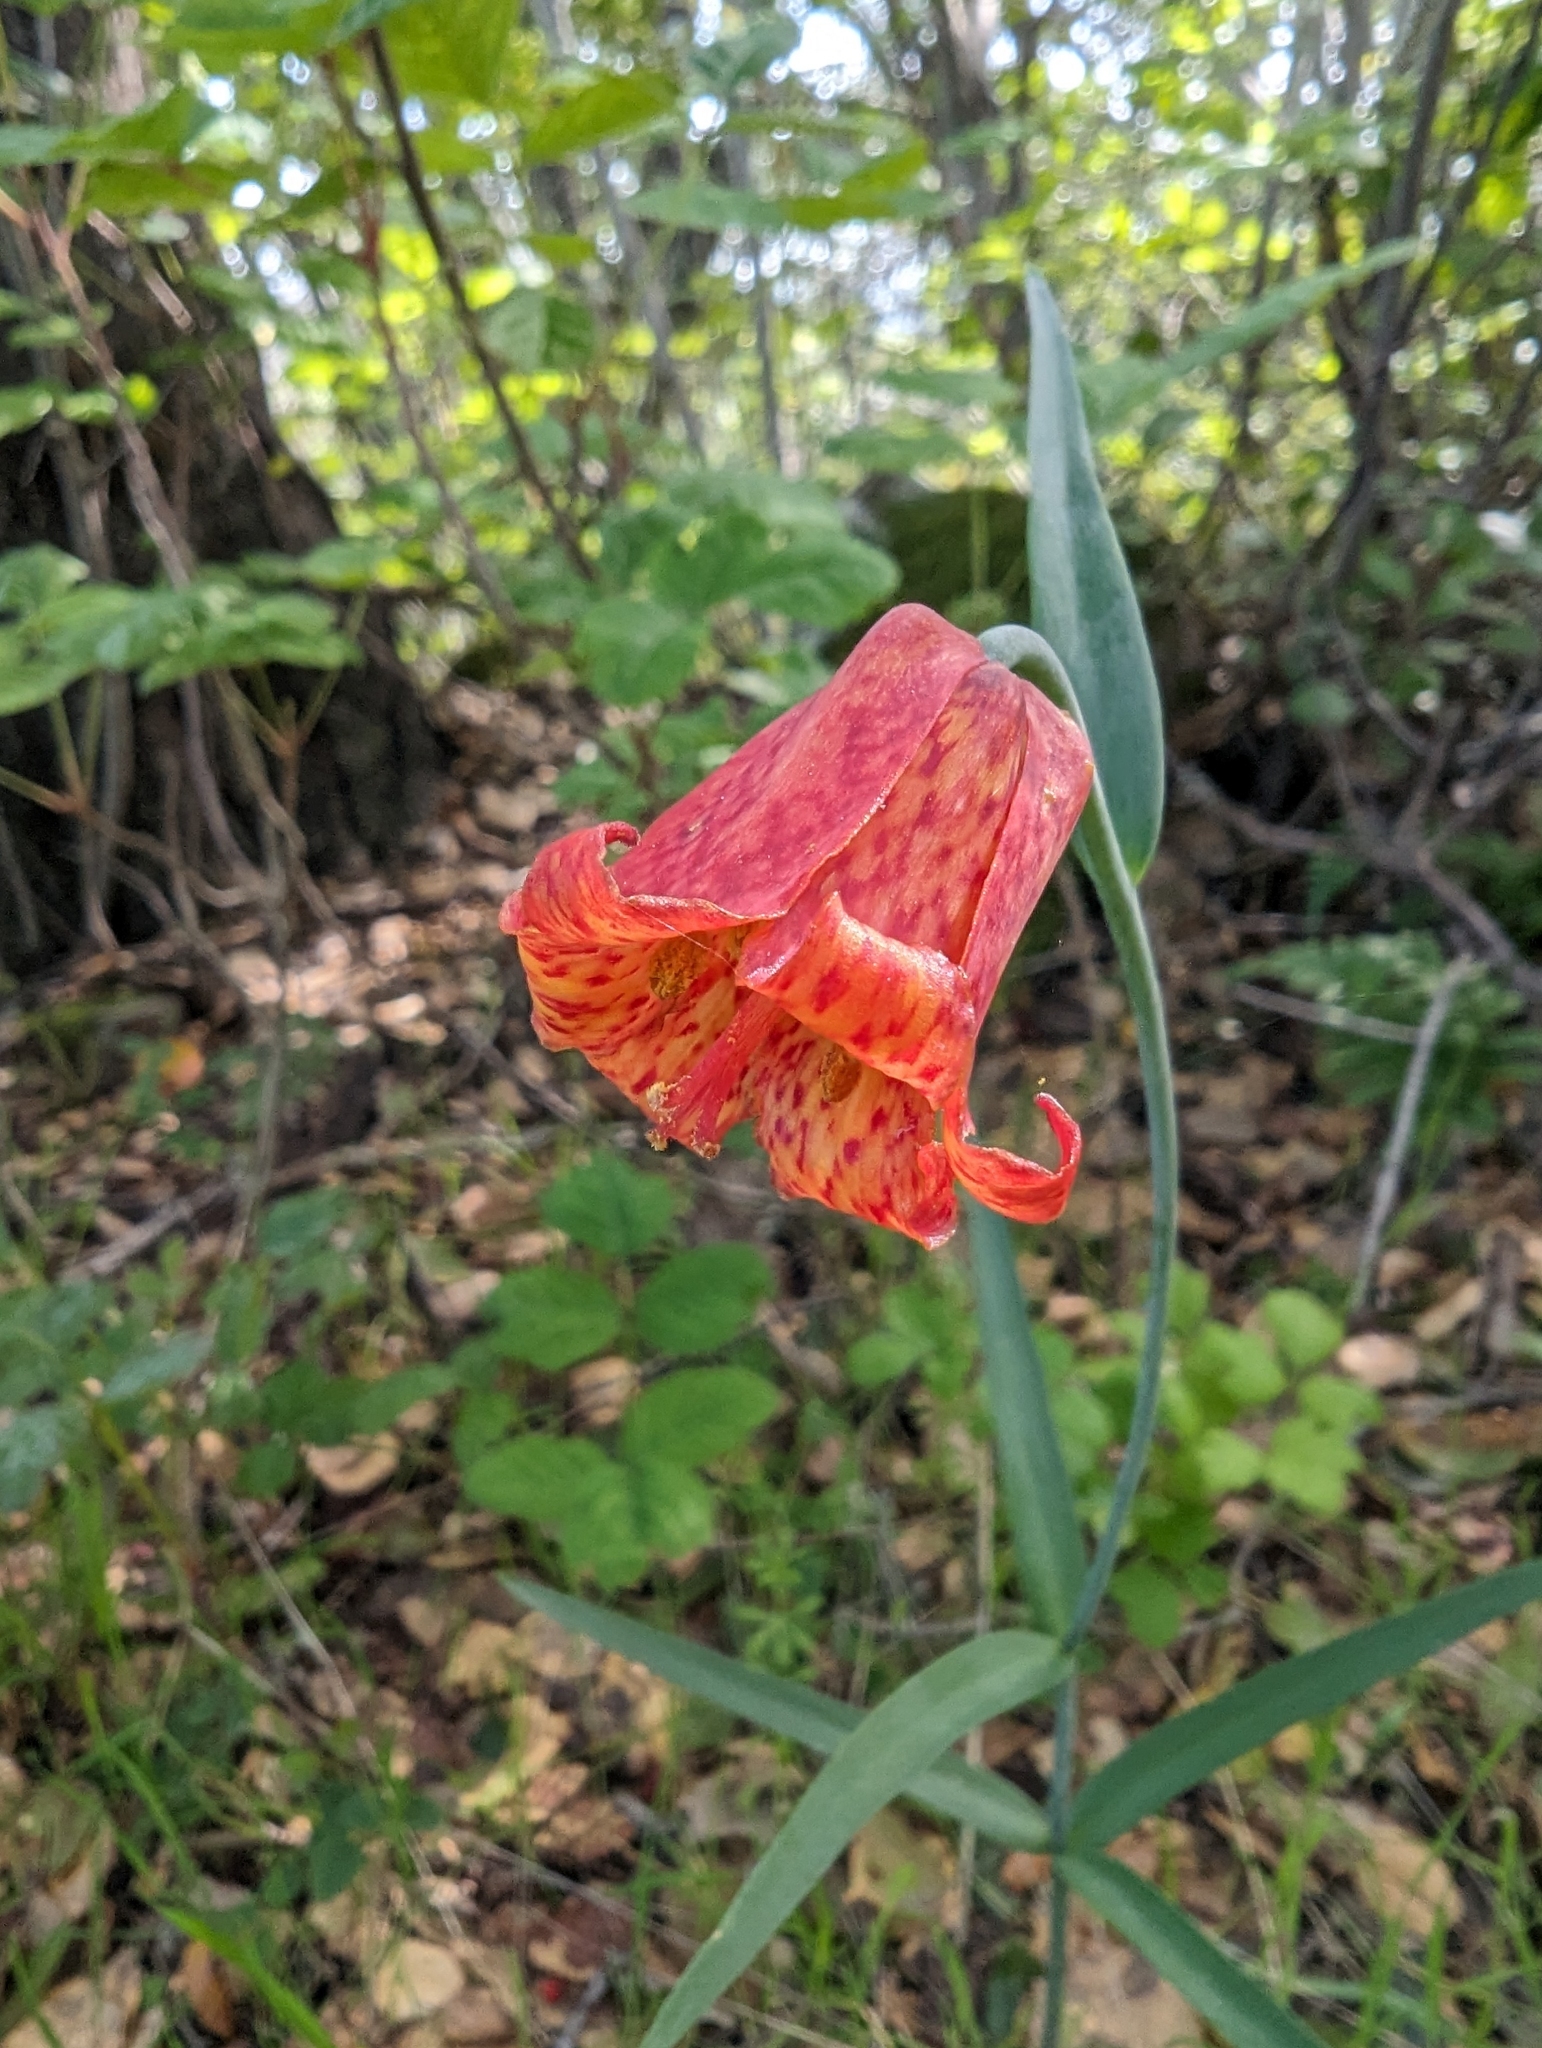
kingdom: Plantae
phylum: Tracheophyta
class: Liliopsida
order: Liliales
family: Liliaceae
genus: Fritillaria
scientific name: Fritillaria recurva
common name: Scarlet fritillary
